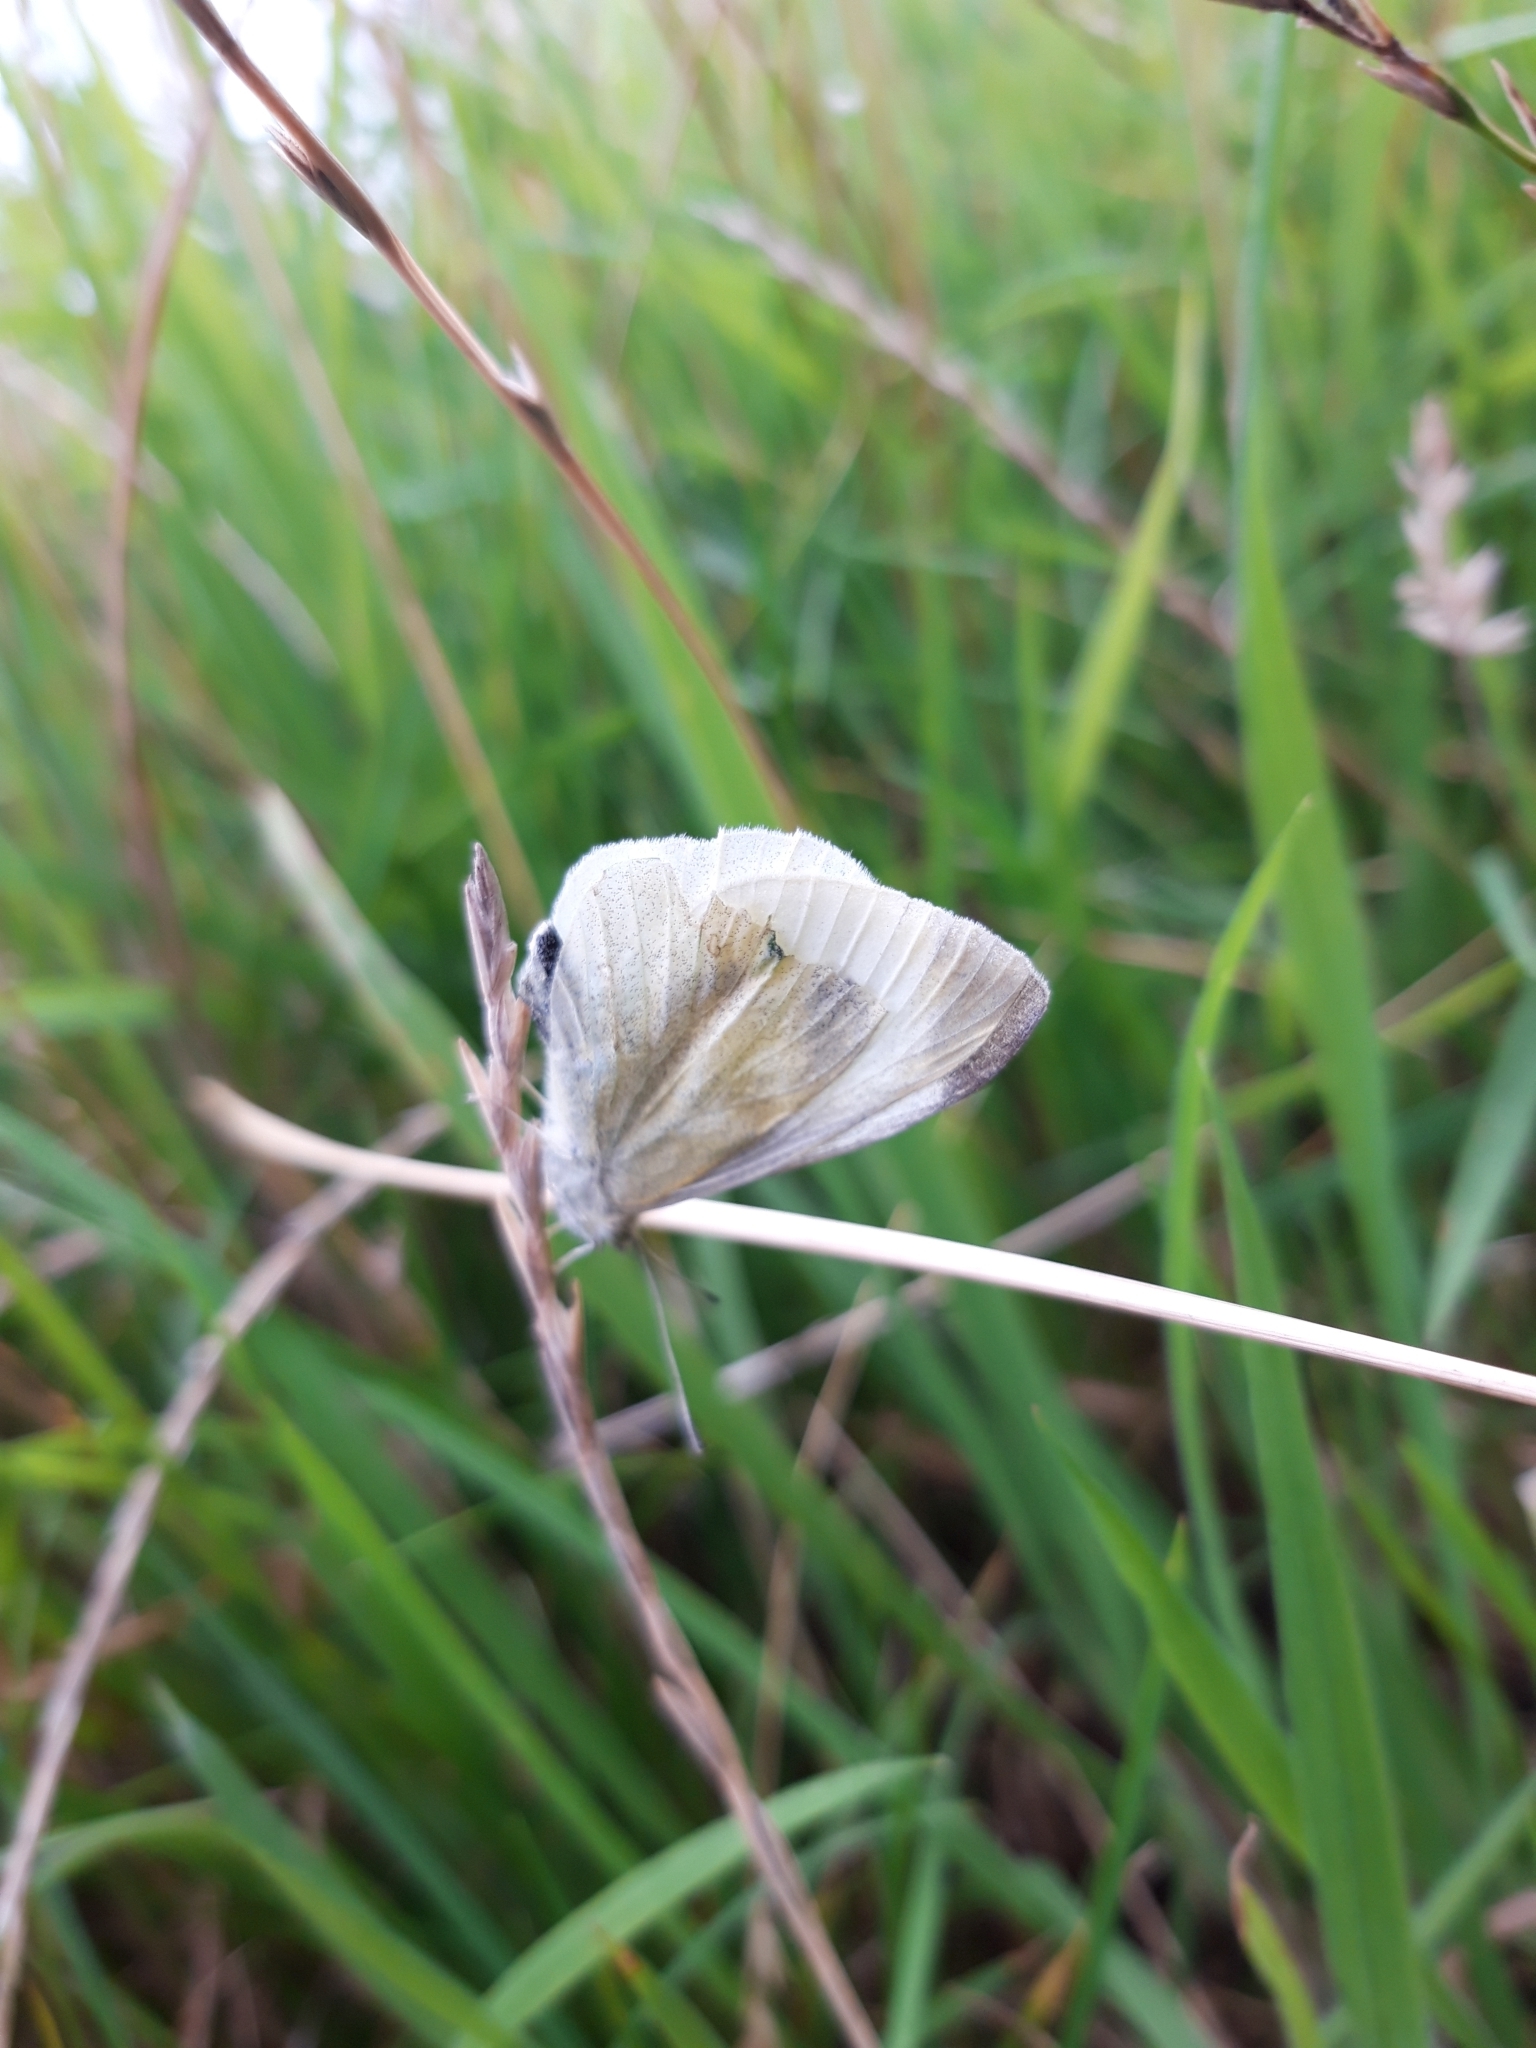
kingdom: Animalia
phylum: Arthropoda
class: Insecta
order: Lepidoptera
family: Pieridae
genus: Pieris
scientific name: Pieris rapae
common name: Small white
